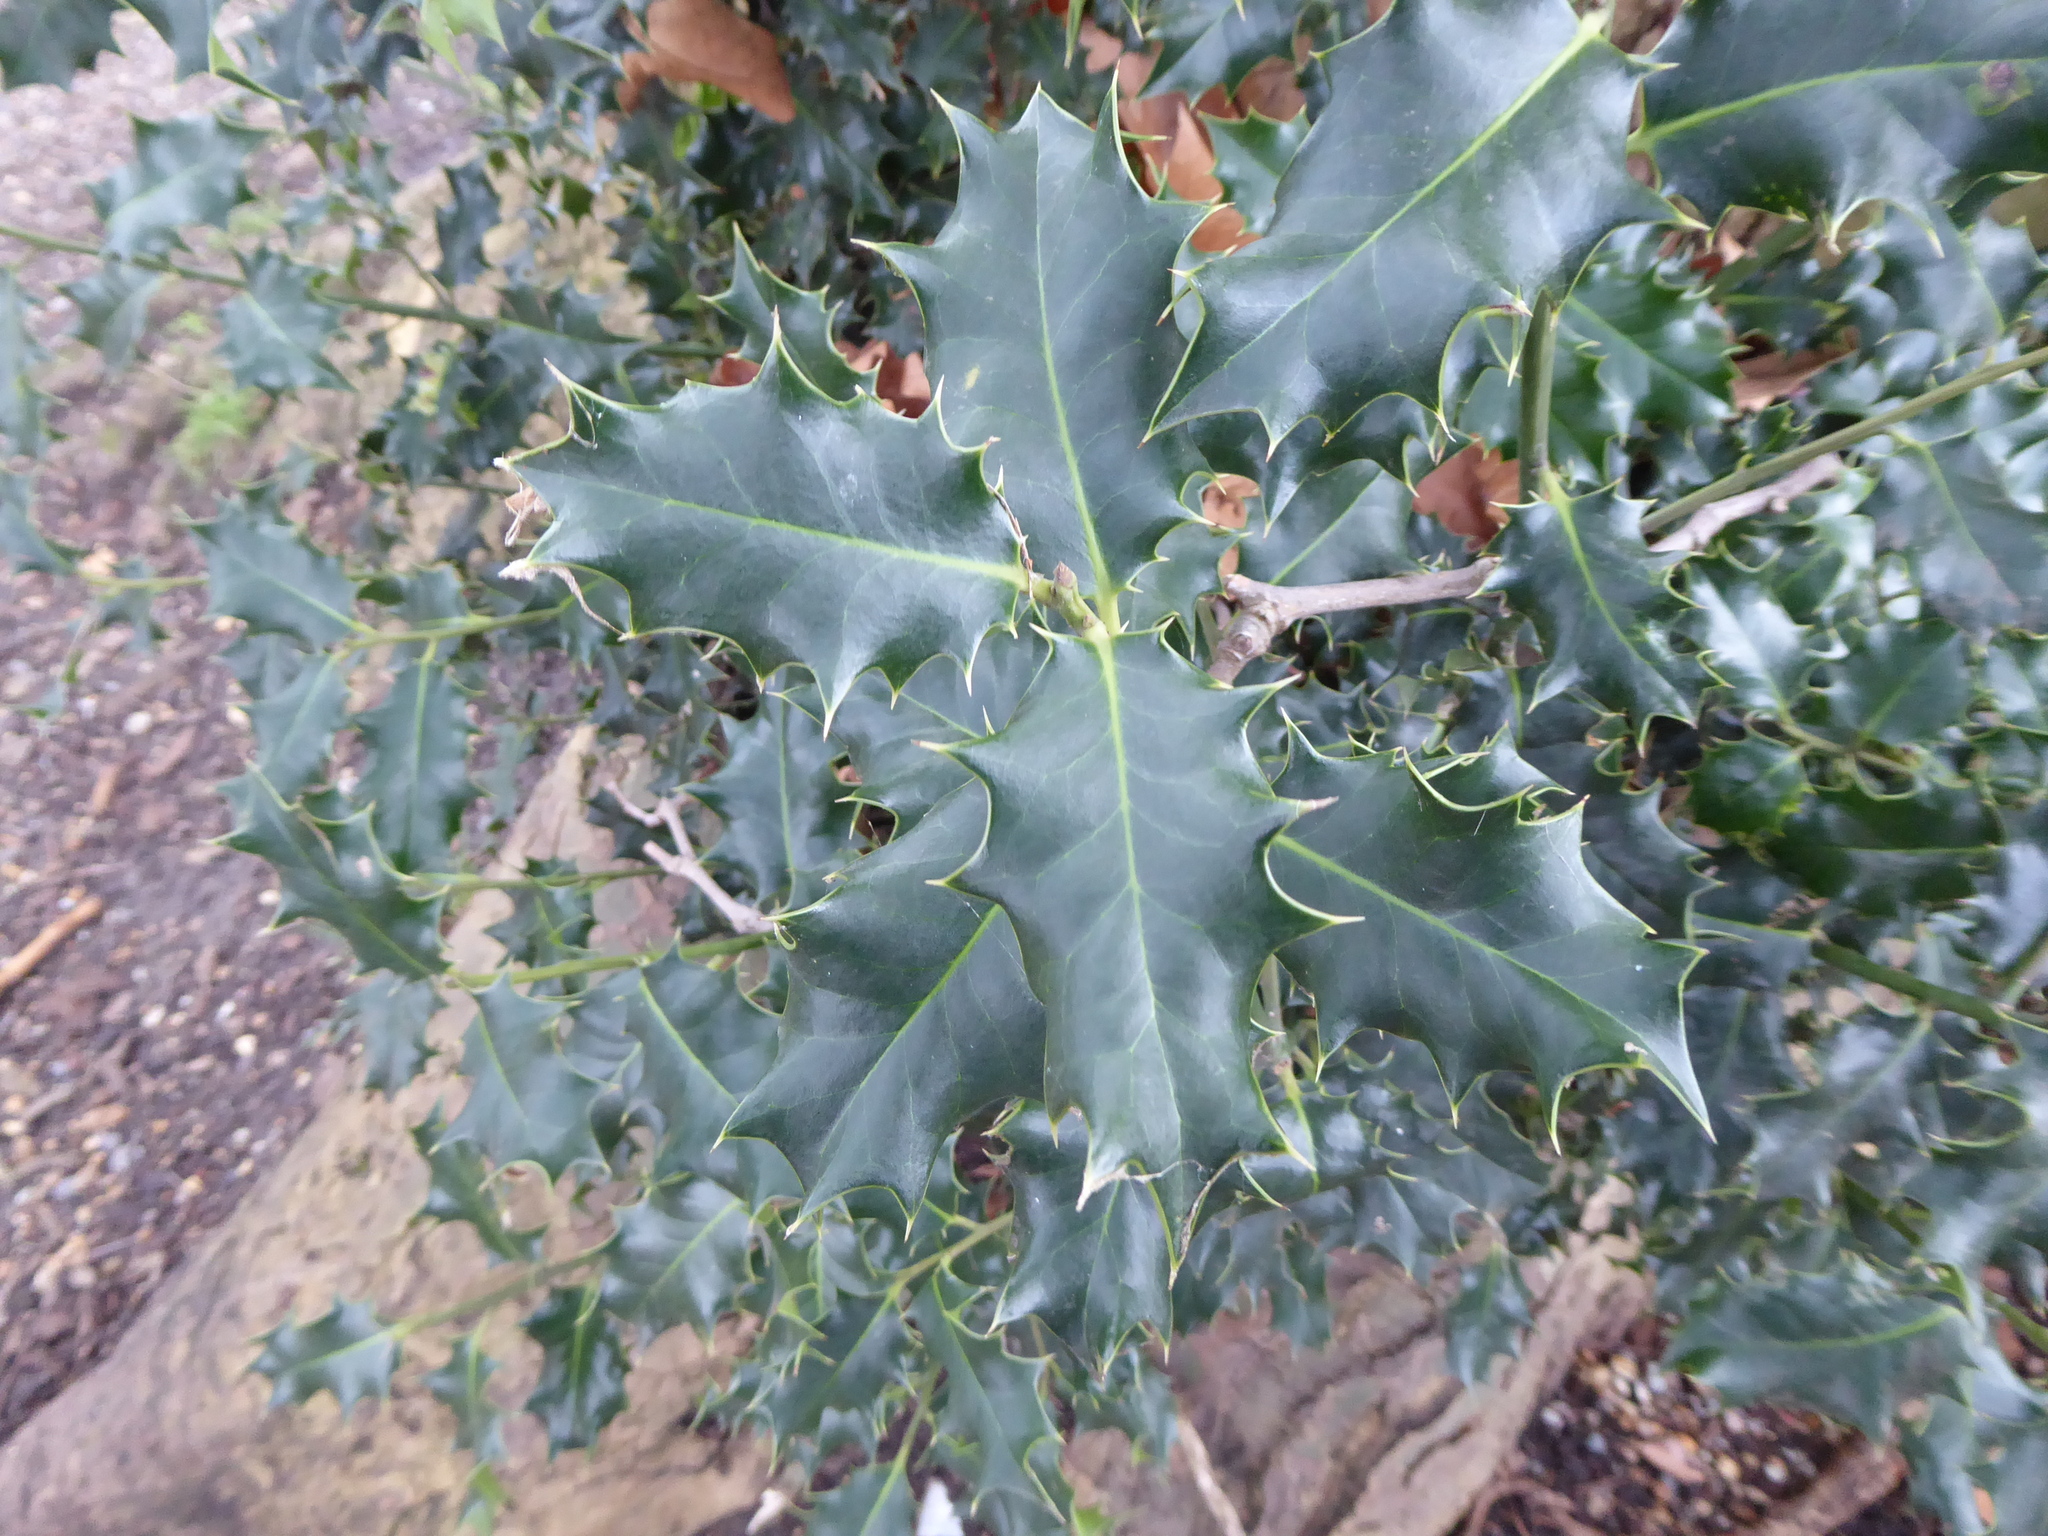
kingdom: Plantae
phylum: Tracheophyta
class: Magnoliopsida
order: Aquifoliales
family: Aquifoliaceae
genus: Ilex
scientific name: Ilex aquifolium
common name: English holly
